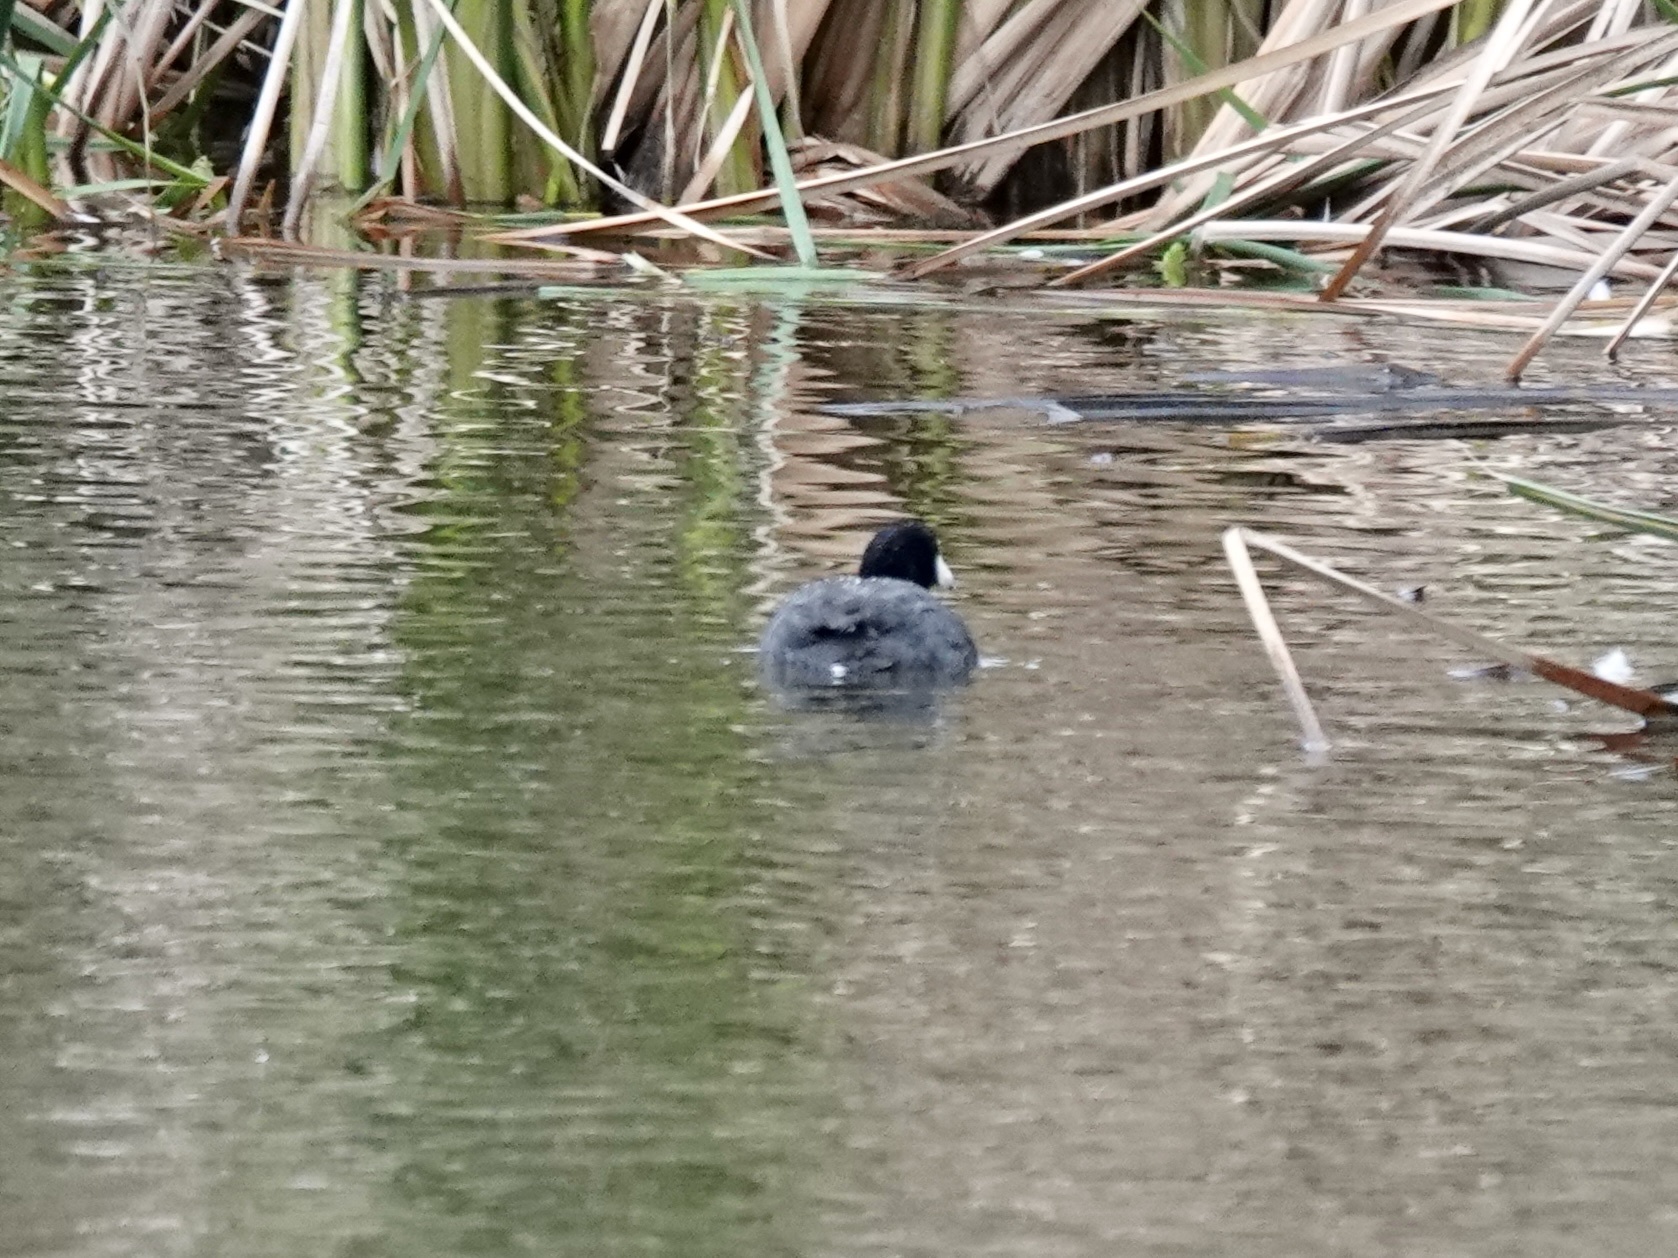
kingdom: Animalia
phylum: Chordata
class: Aves
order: Gruiformes
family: Rallidae
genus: Fulica
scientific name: Fulica americana
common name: American coot
